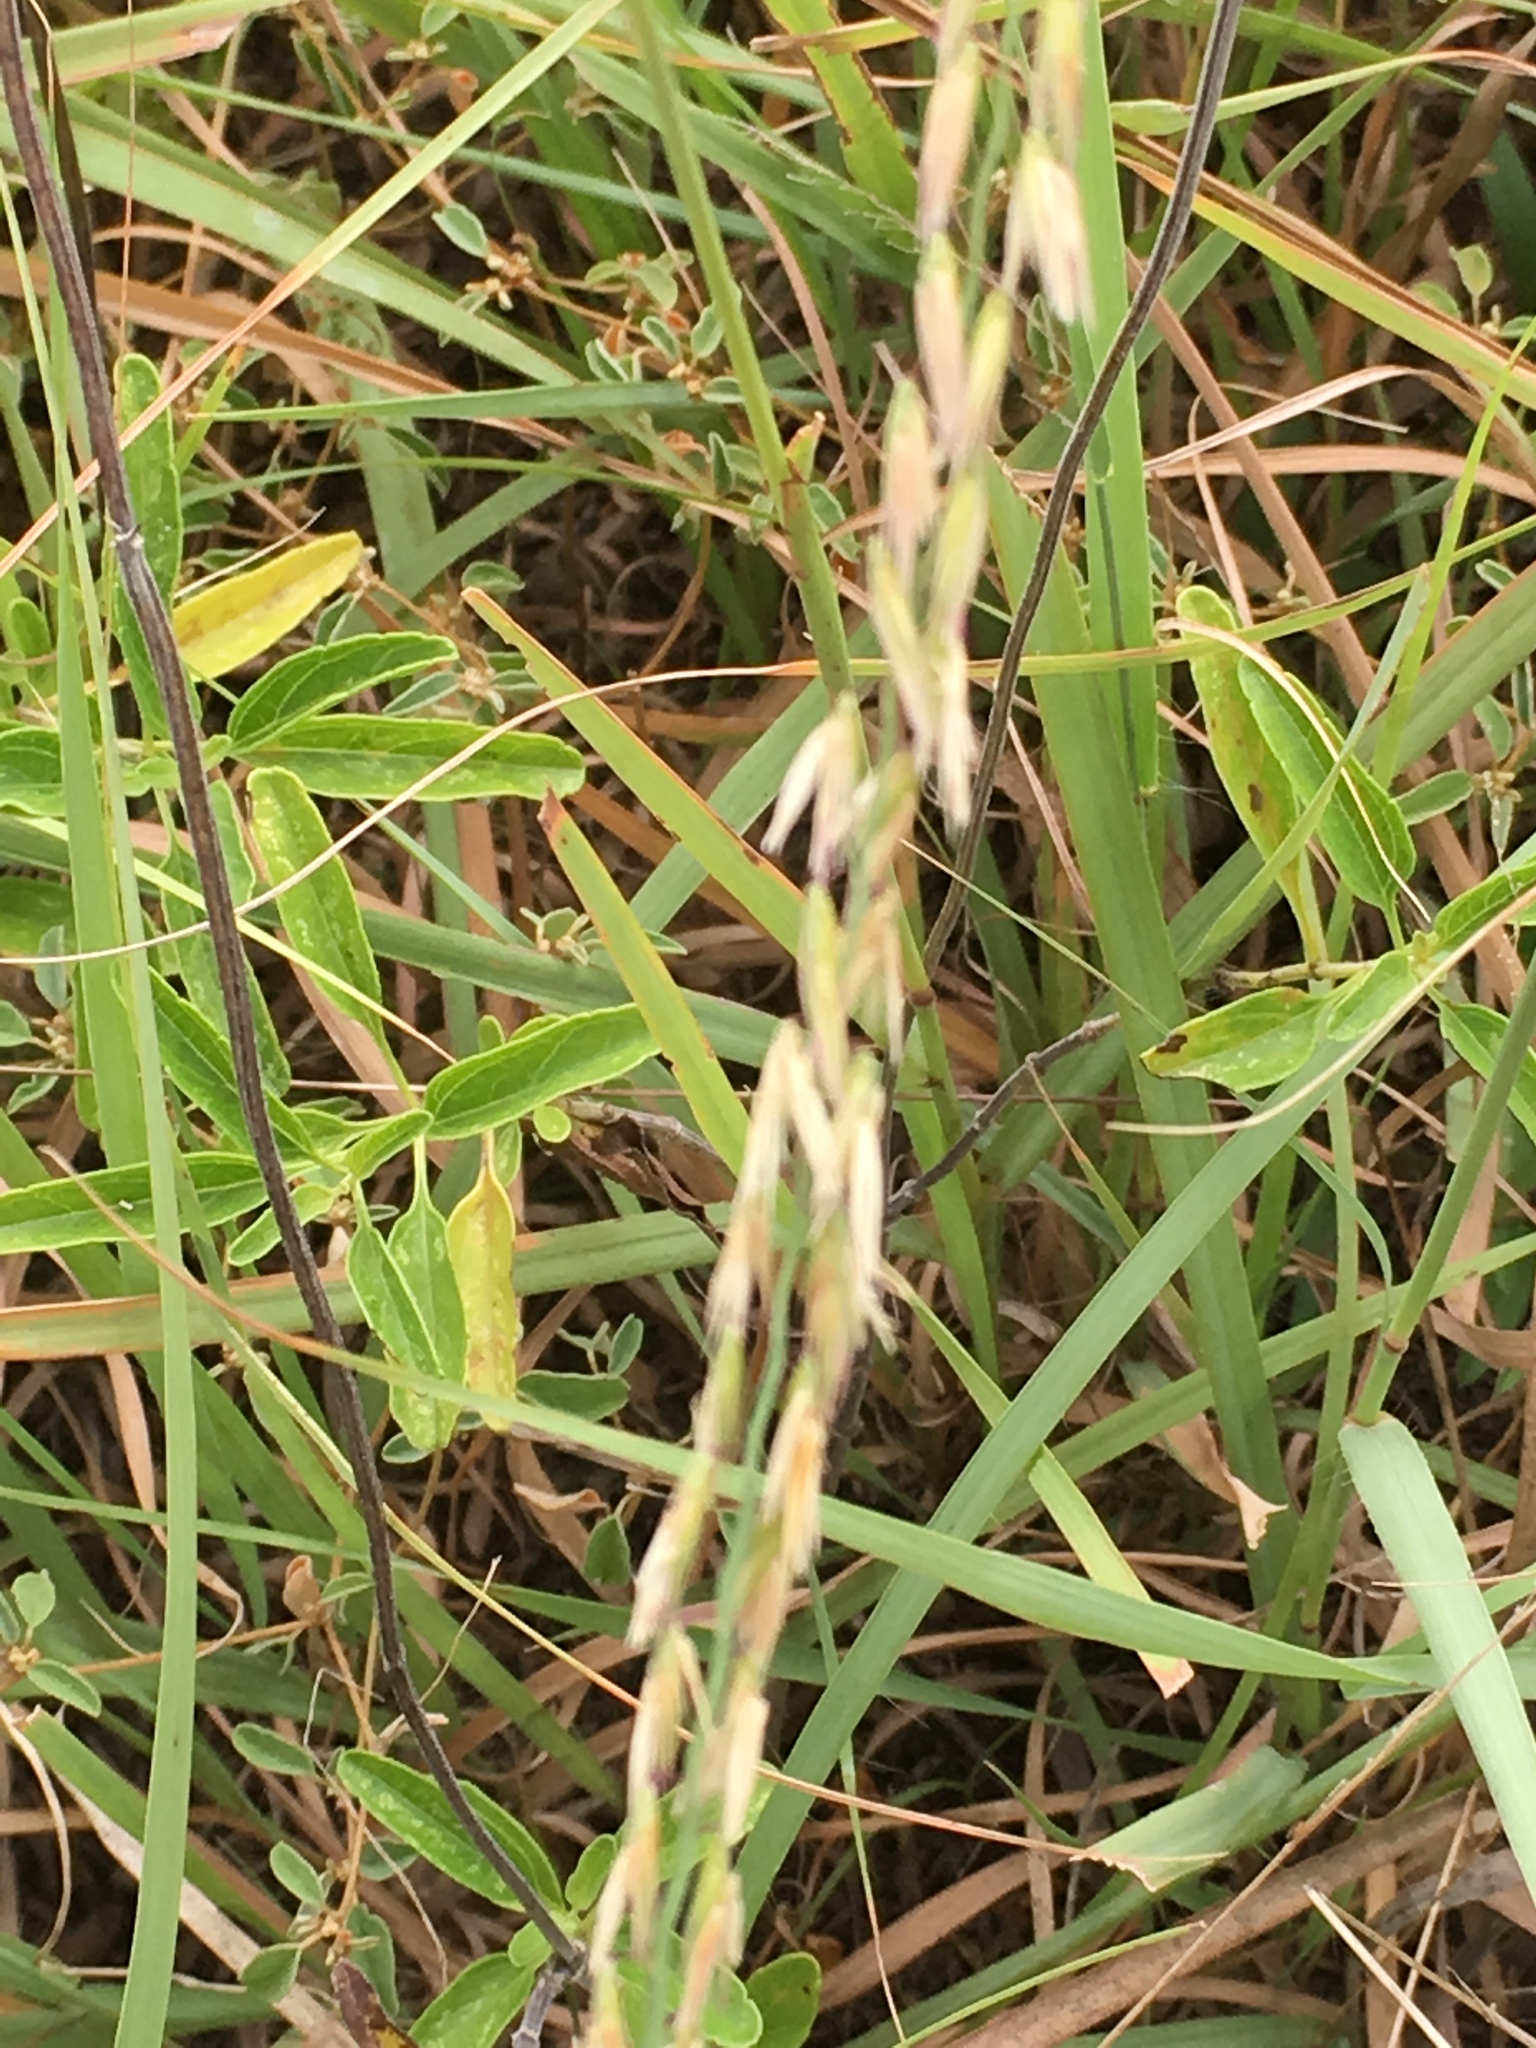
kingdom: Plantae
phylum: Tracheophyta
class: Liliopsida
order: Poales
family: Poaceae
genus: Bouteloua
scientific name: Bouteloua curtipendula
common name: Side-oats grama
